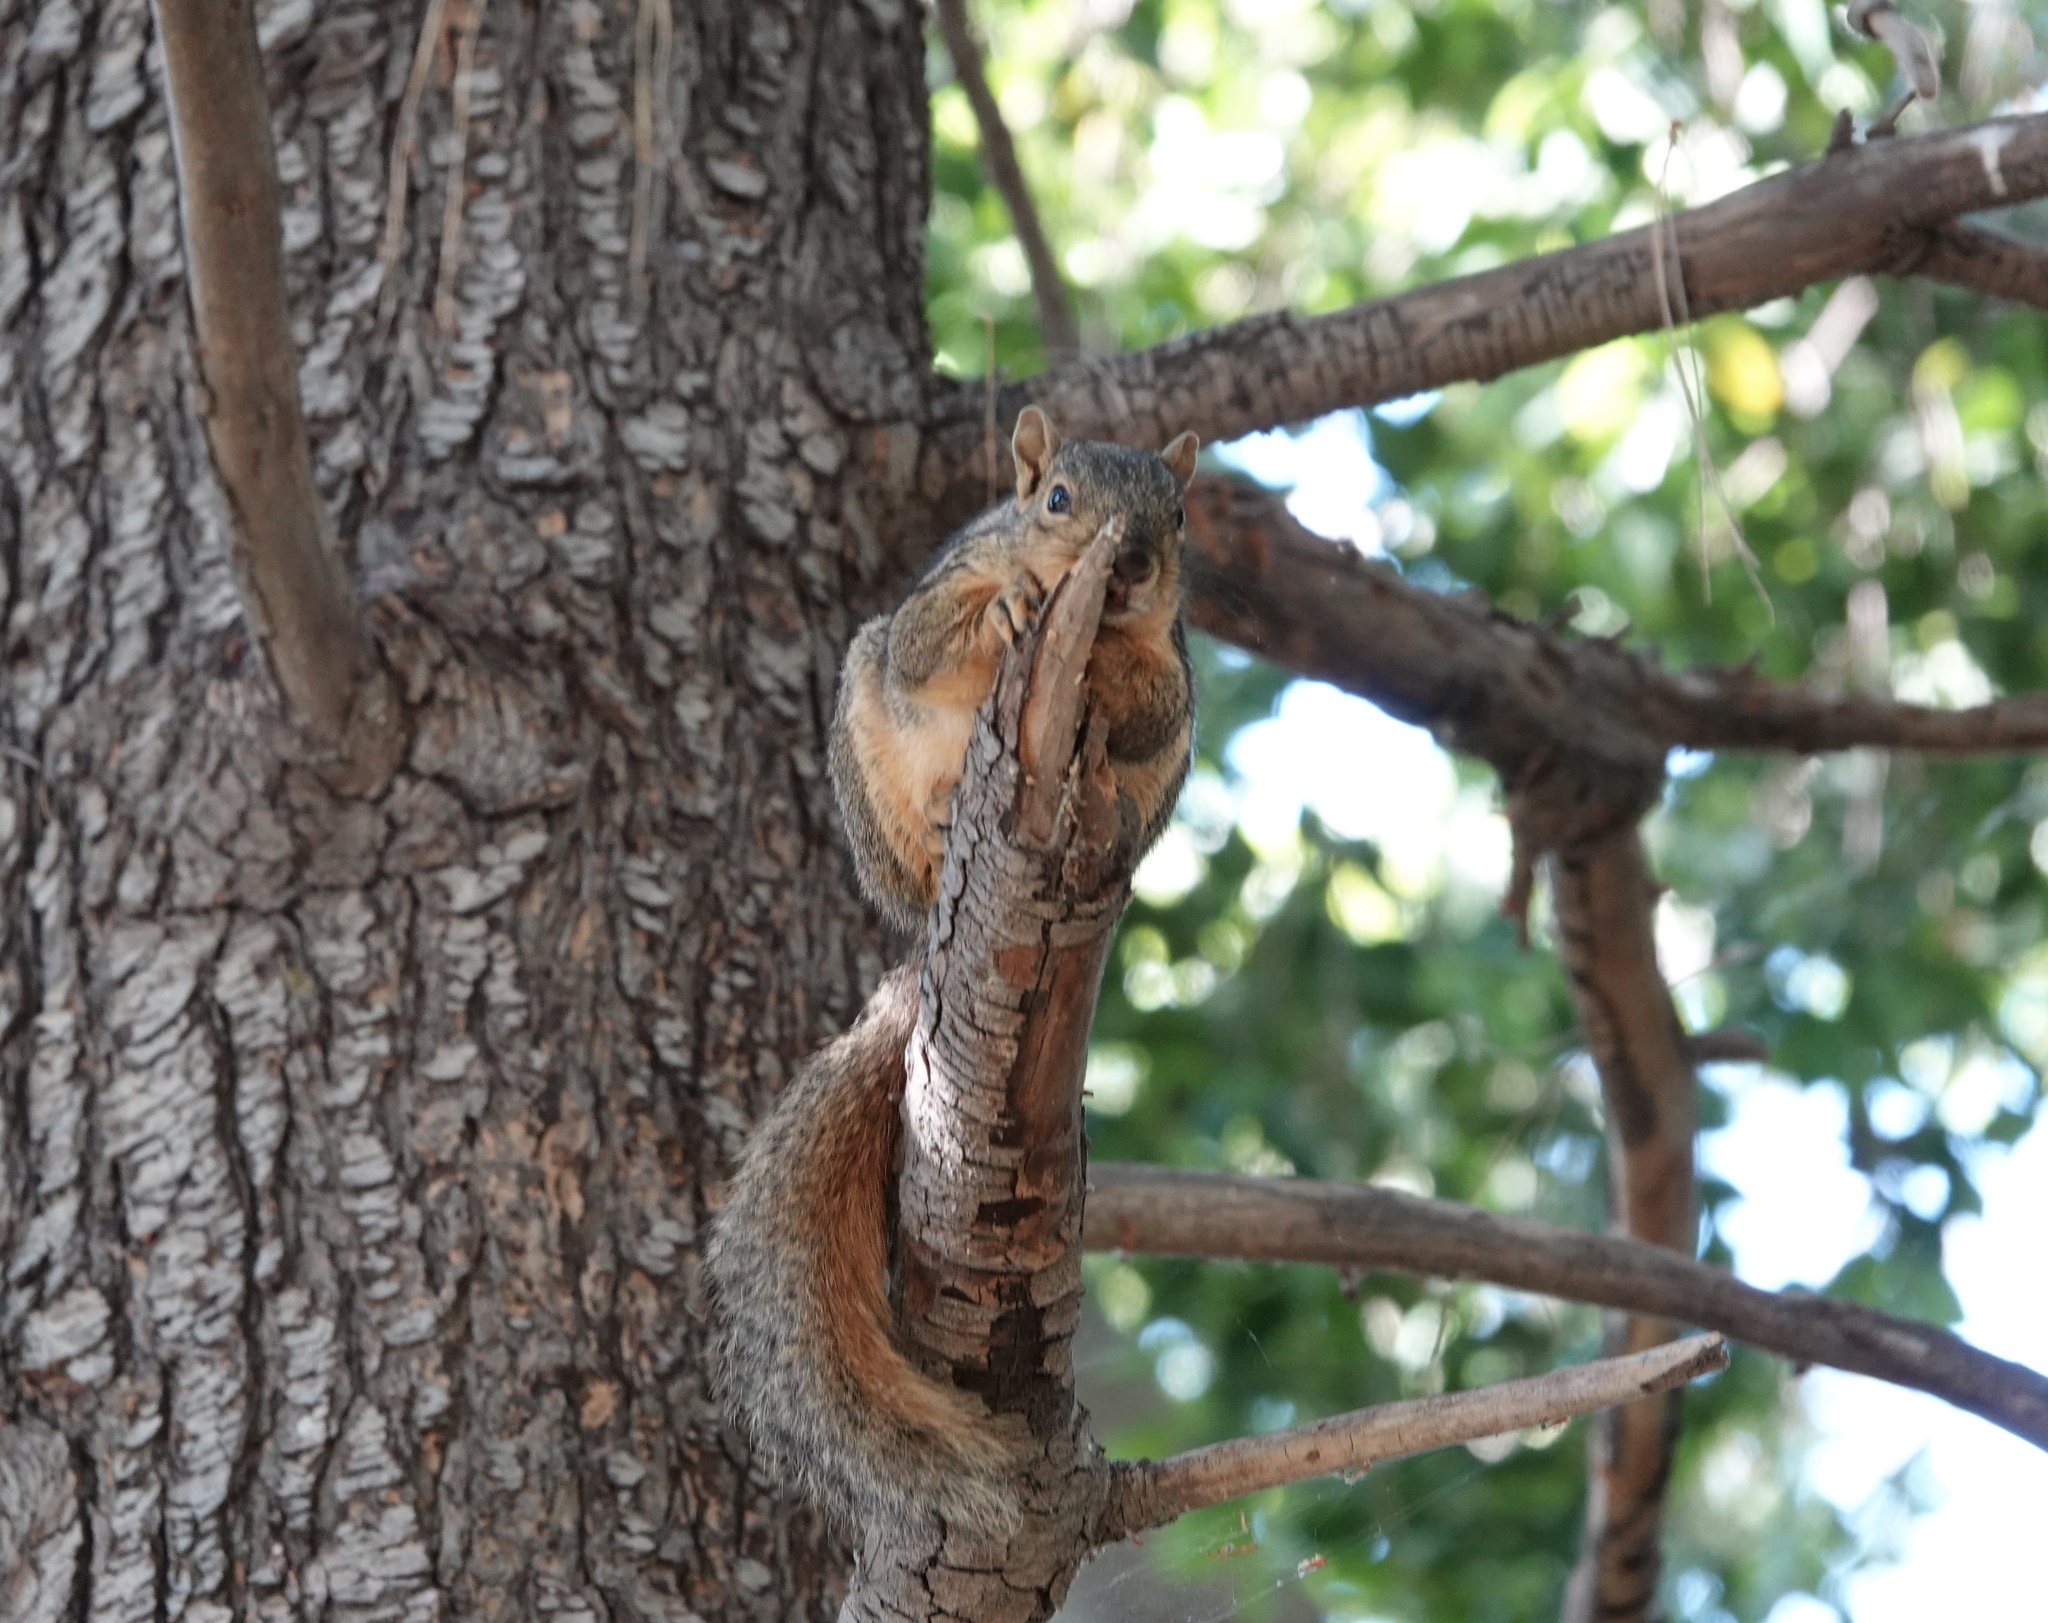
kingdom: Animalia
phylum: Chordata
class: Mammalia
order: Rodentia
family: Sciuridae
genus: Sciurus
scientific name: Sciurus niger
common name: Fox squirrel
